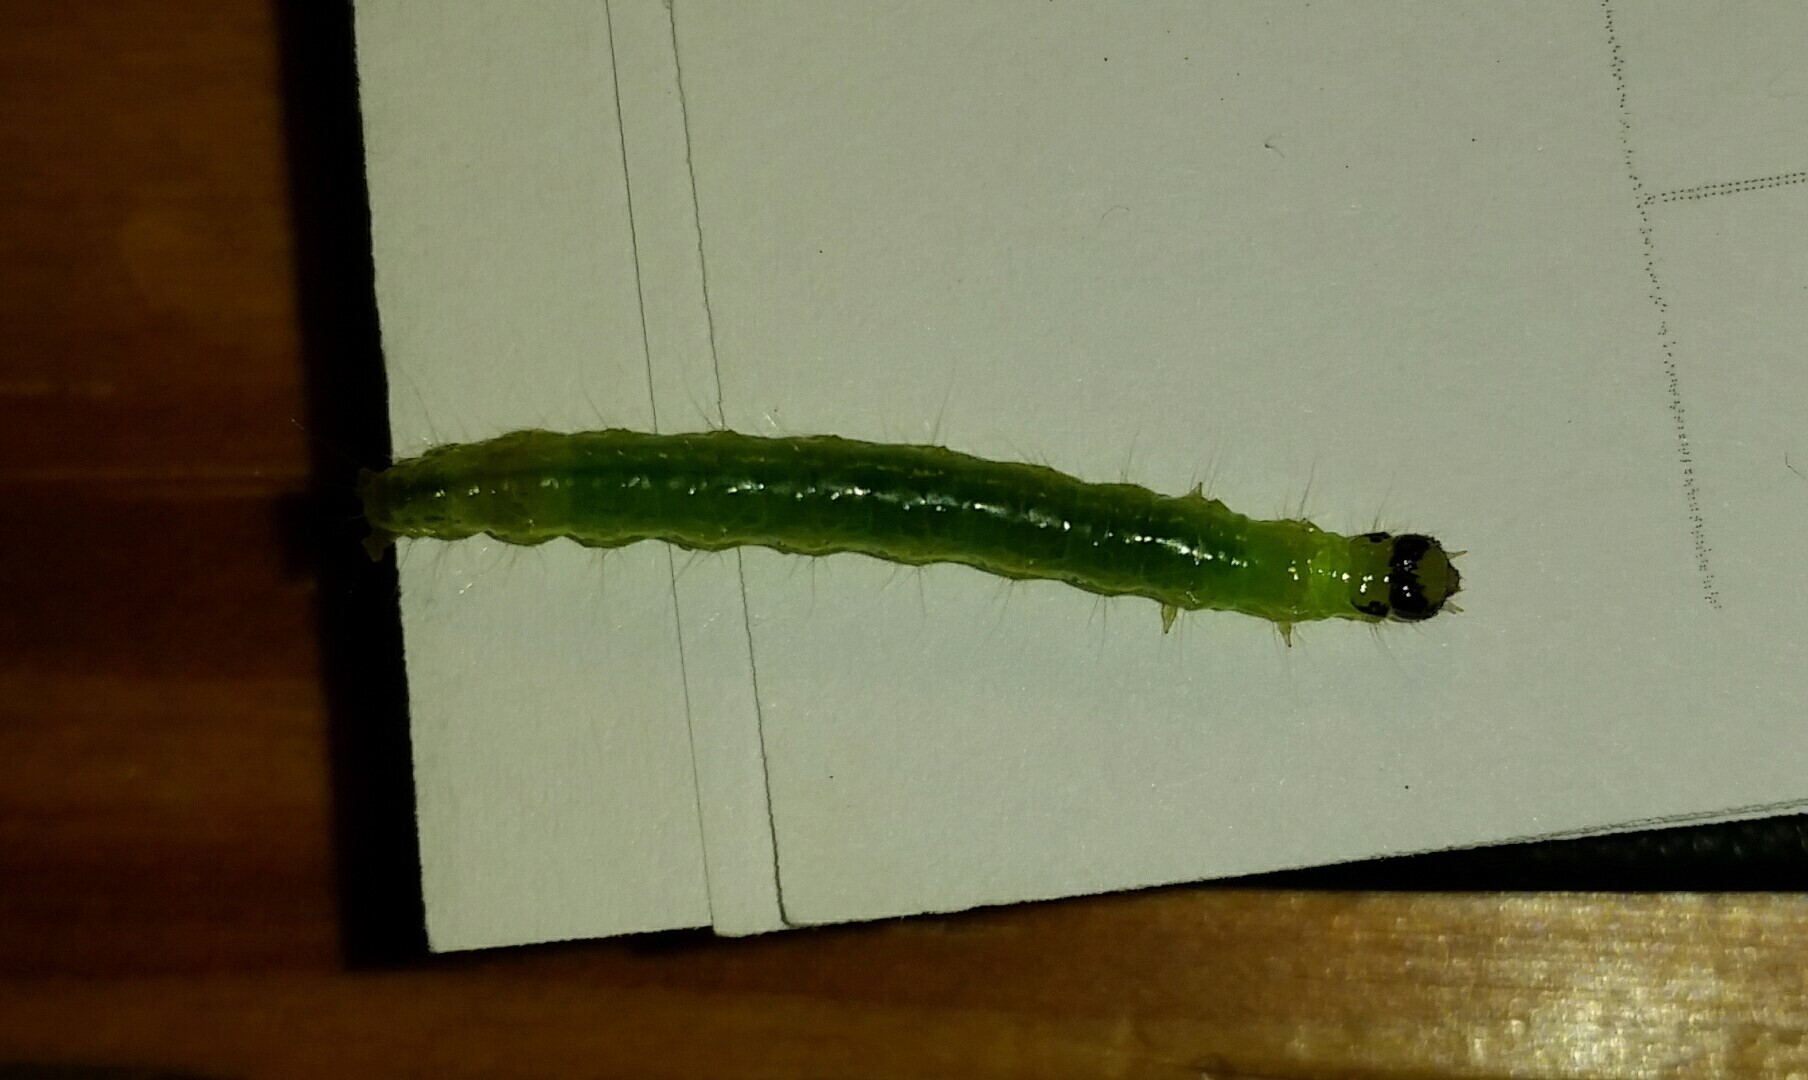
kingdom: Animalia
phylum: Arthropoda
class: Insecta
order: Lepidoptera
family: Crambidae
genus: Condylorrhiza
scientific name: Condylorrhiza vestigialis
